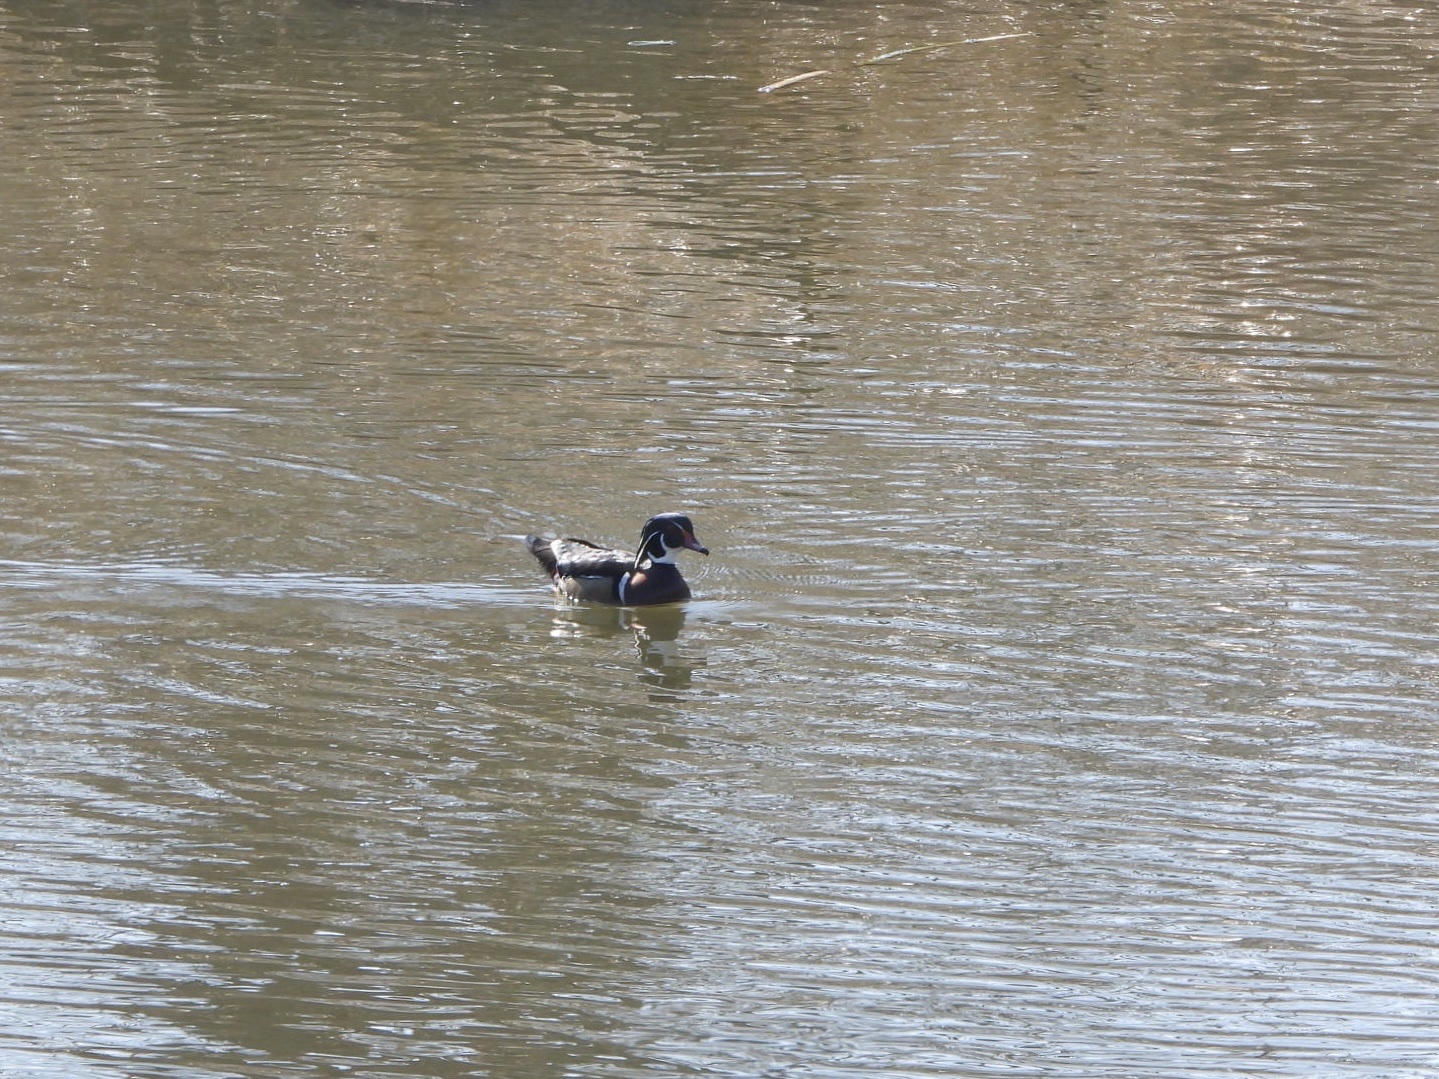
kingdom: Animalia
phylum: Chordata
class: Aves
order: Anseriformes
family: Anatidae
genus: Aix
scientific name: Aix sponsa
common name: Wood duck
